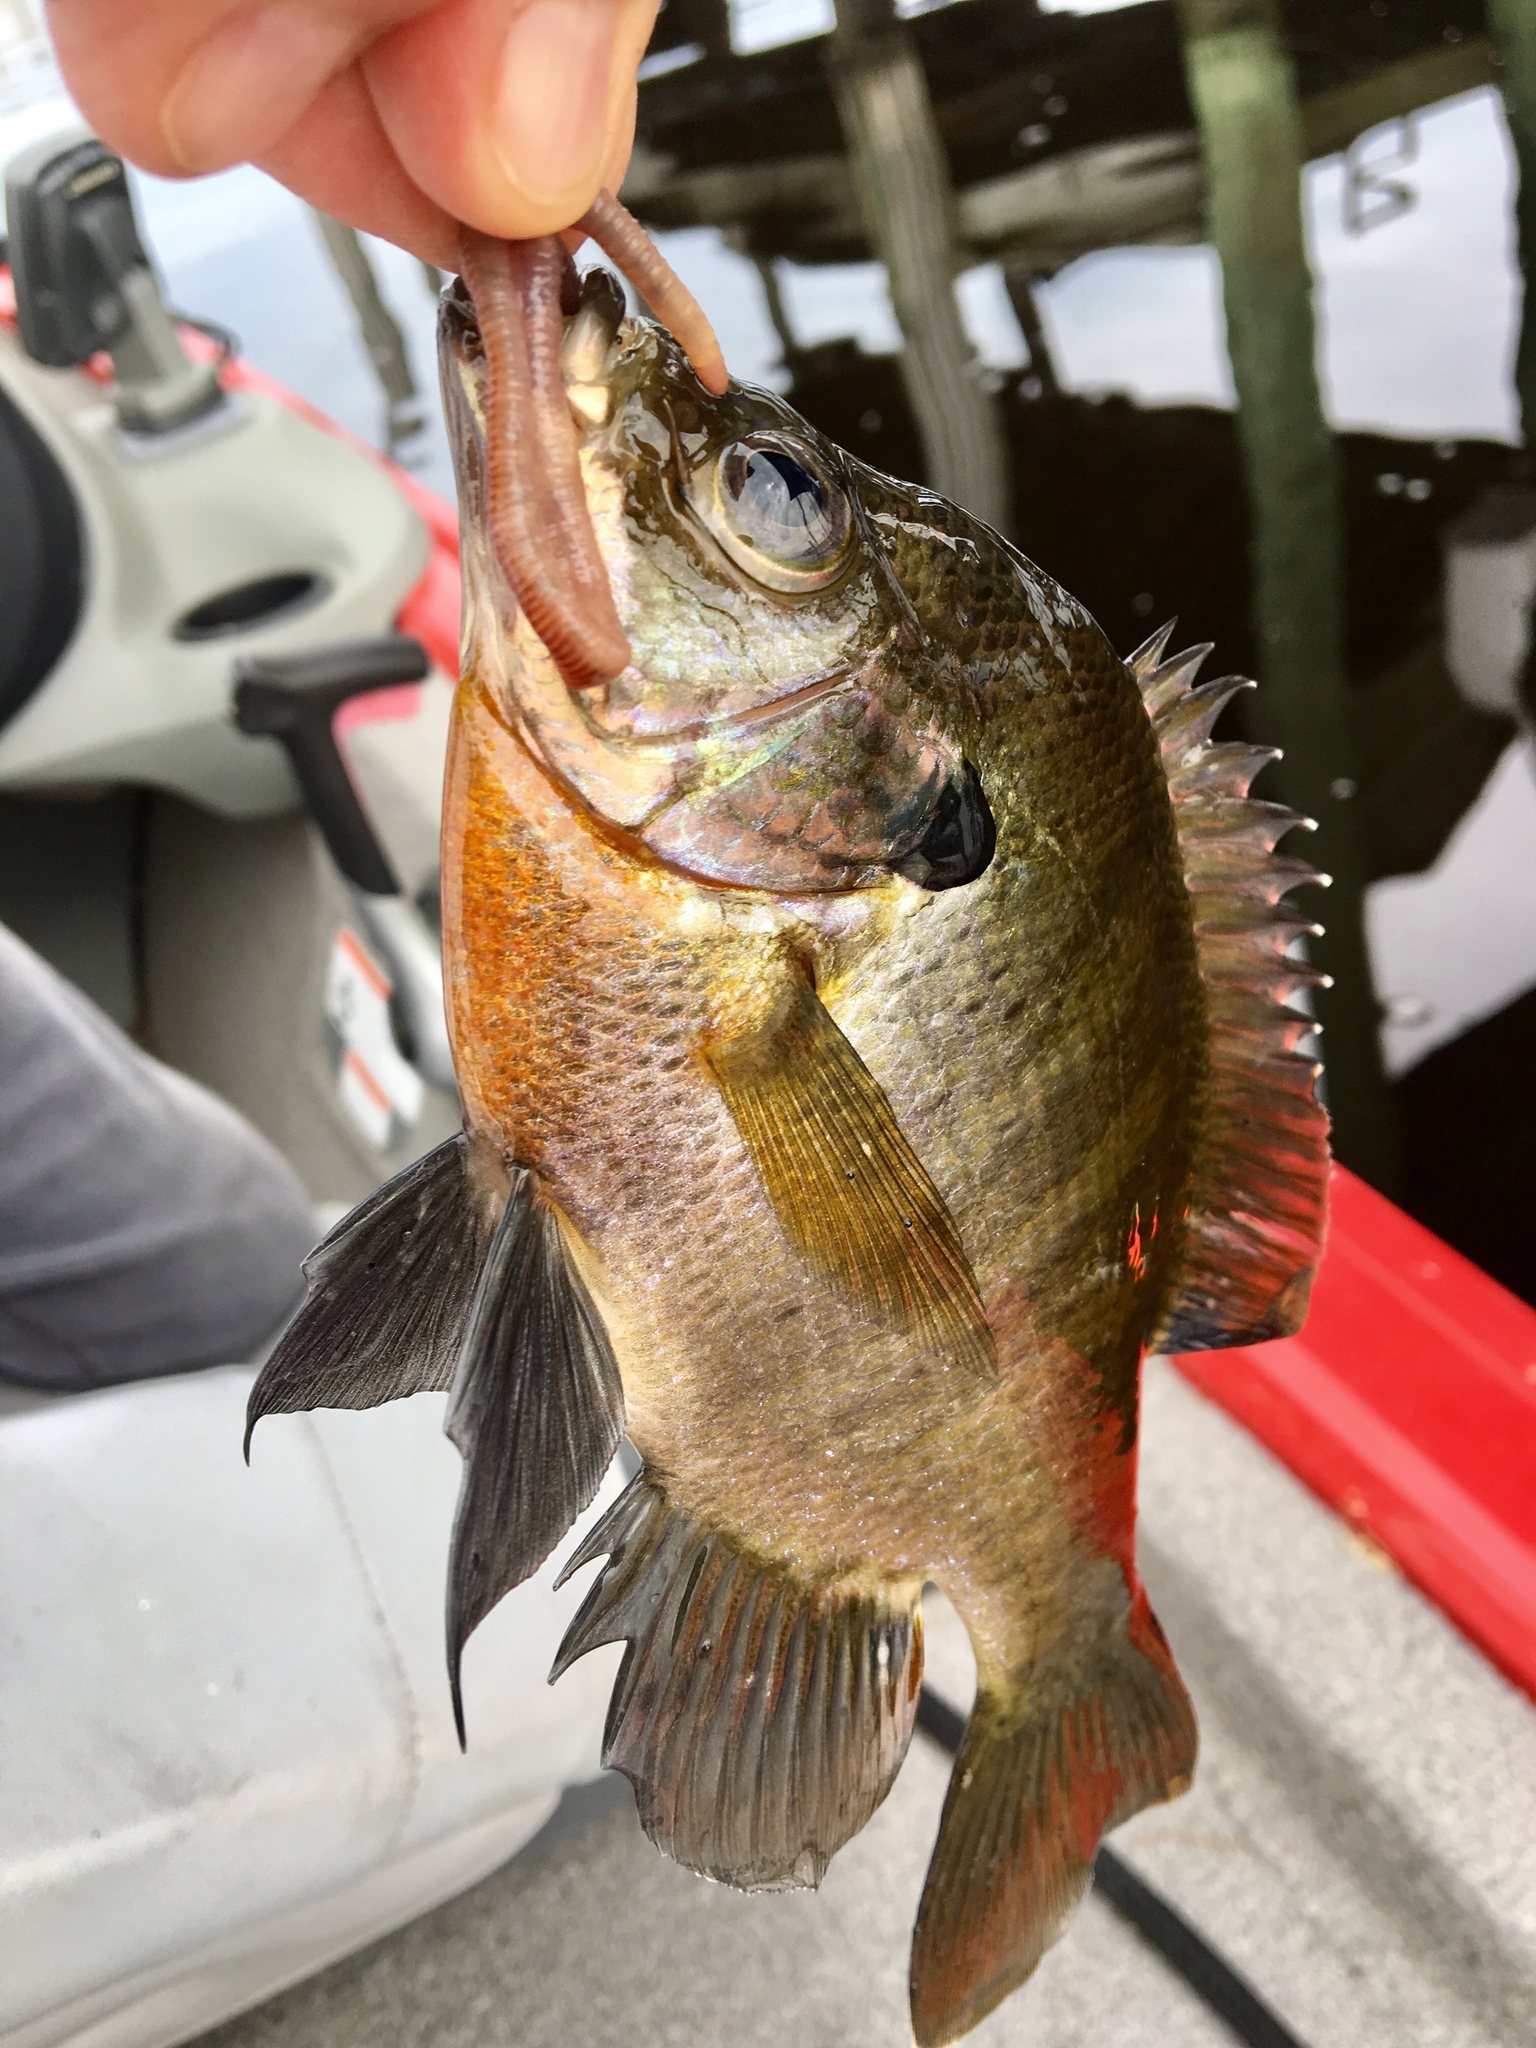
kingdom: Animalia
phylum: Chordata
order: Perciformes
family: Centrarchidae
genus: Lepomis
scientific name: Lepomis macrochirus
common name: Bluegill
